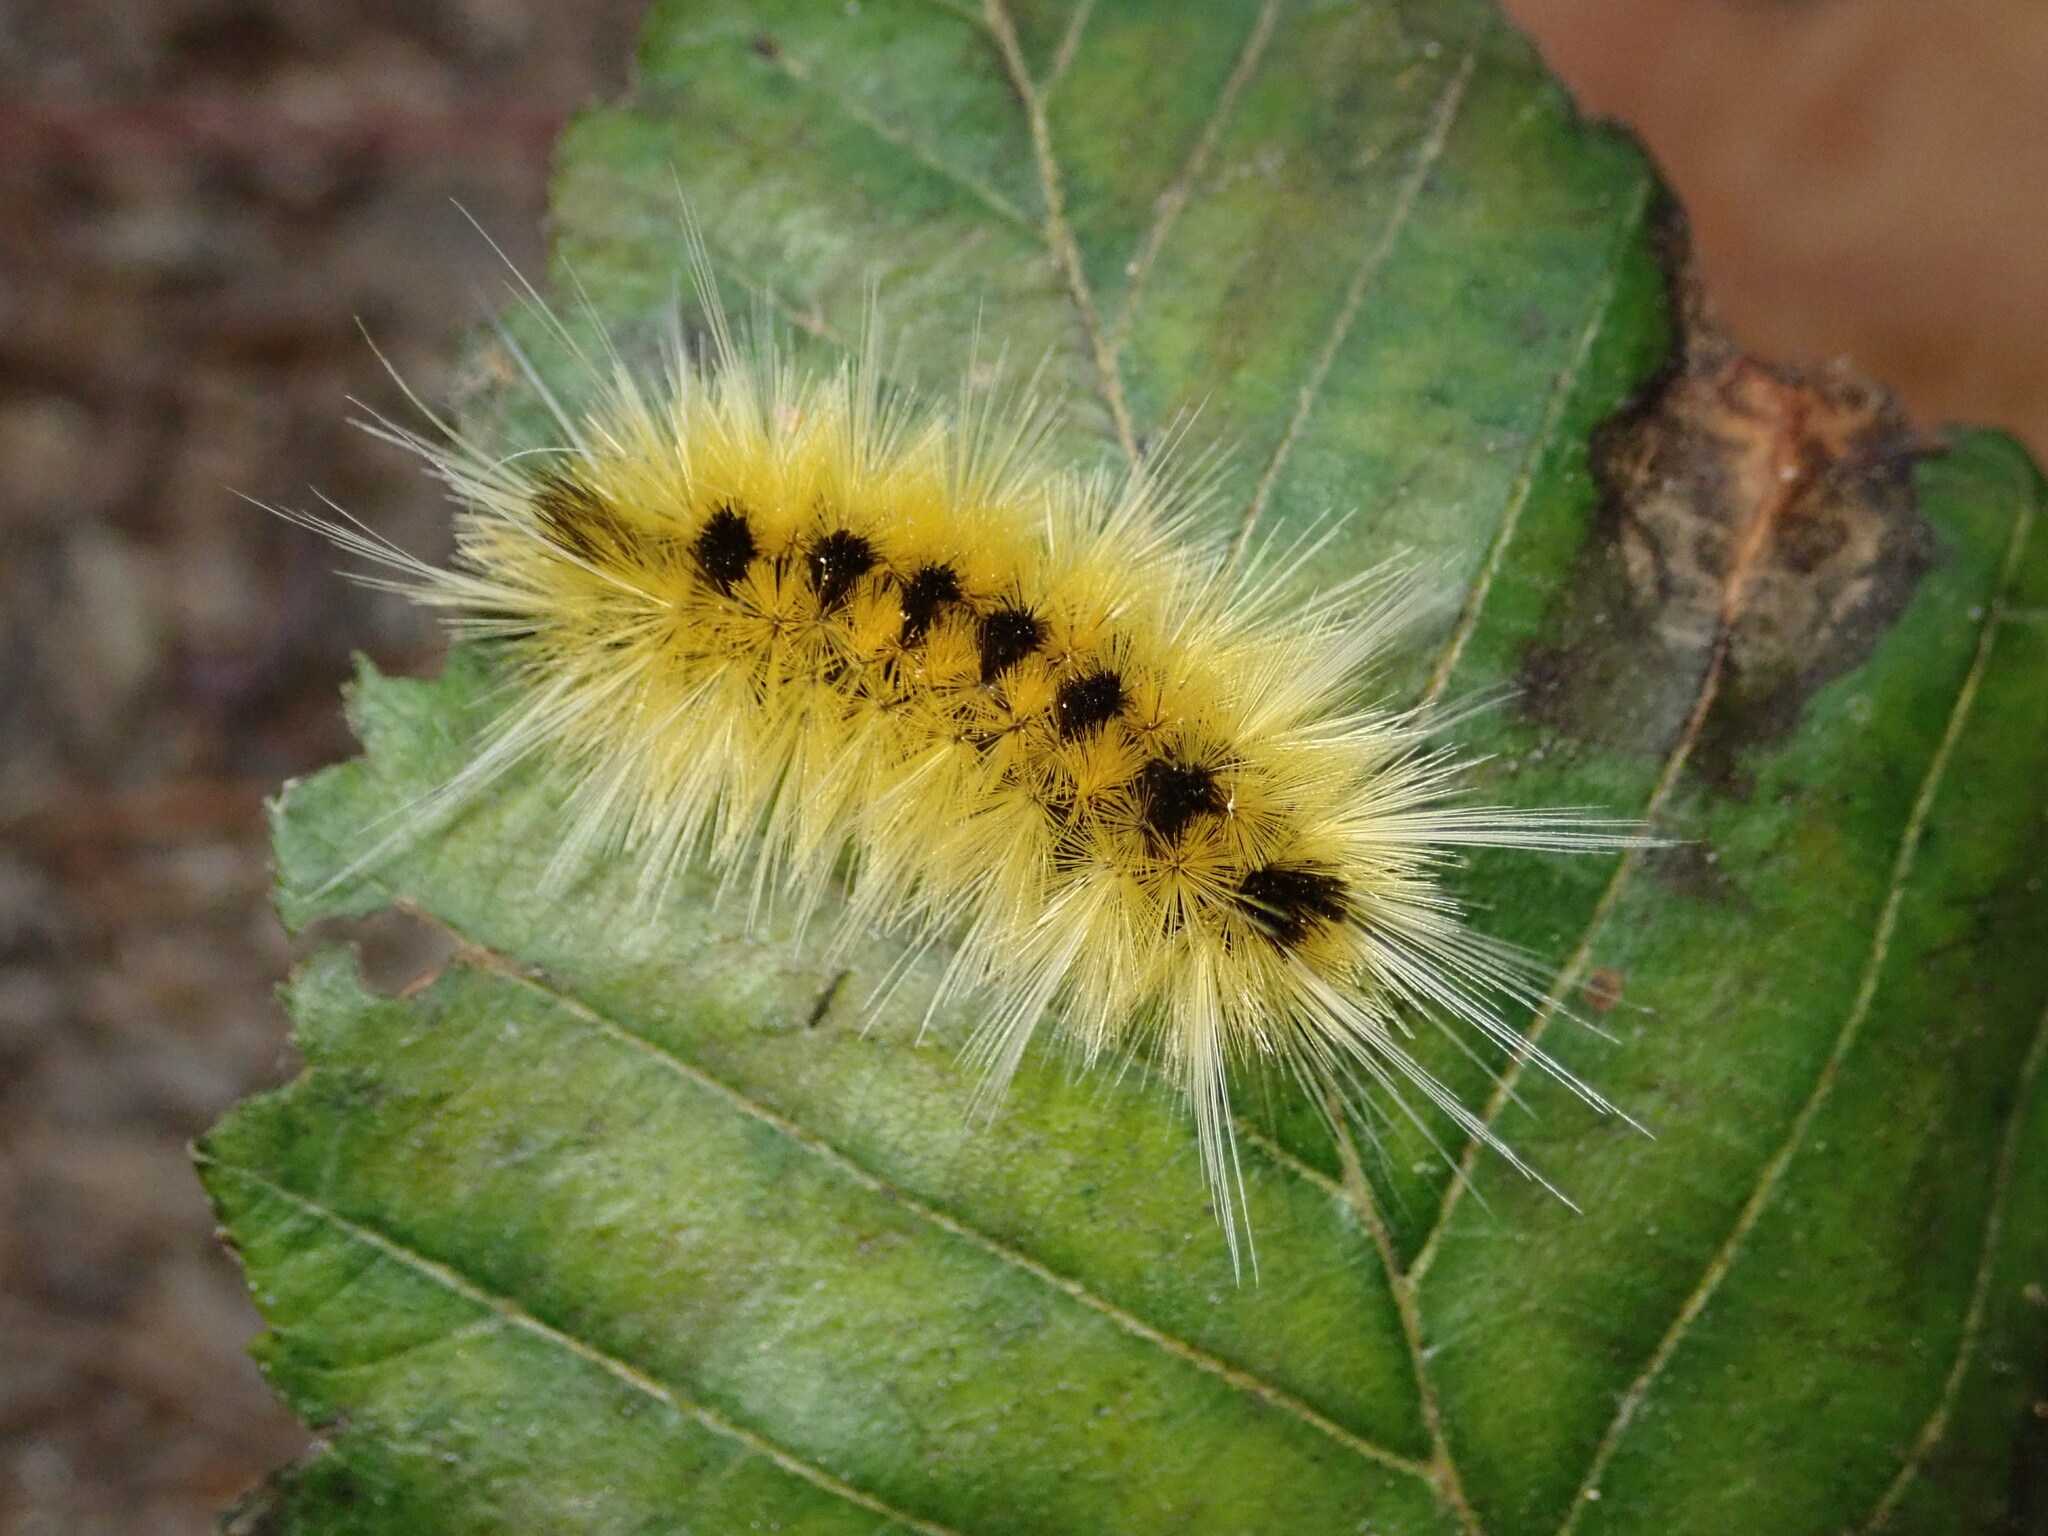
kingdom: Animalia
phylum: Arthropoda
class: Insecta
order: Lepidoptera
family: Erebidae
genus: Lophocampa
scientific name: Lophocampa maculata
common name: Spotted tussock moth
